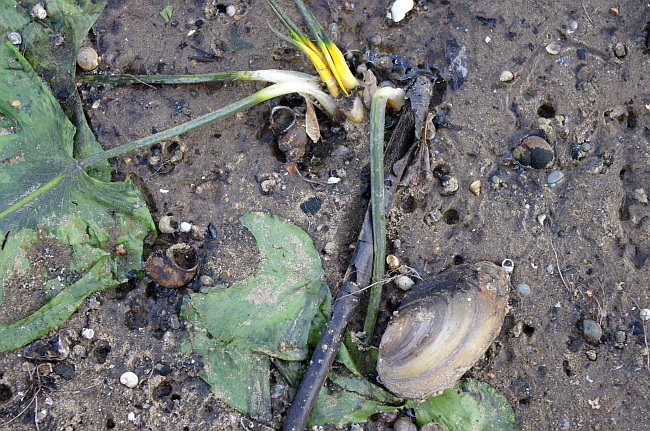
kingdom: Plantae
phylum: Tracheophyta
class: Magnoliopsida
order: Nymphaeales
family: Nymphaeaceae
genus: Nuphar
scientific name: Nuphar lutea
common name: Yellow water-lily
